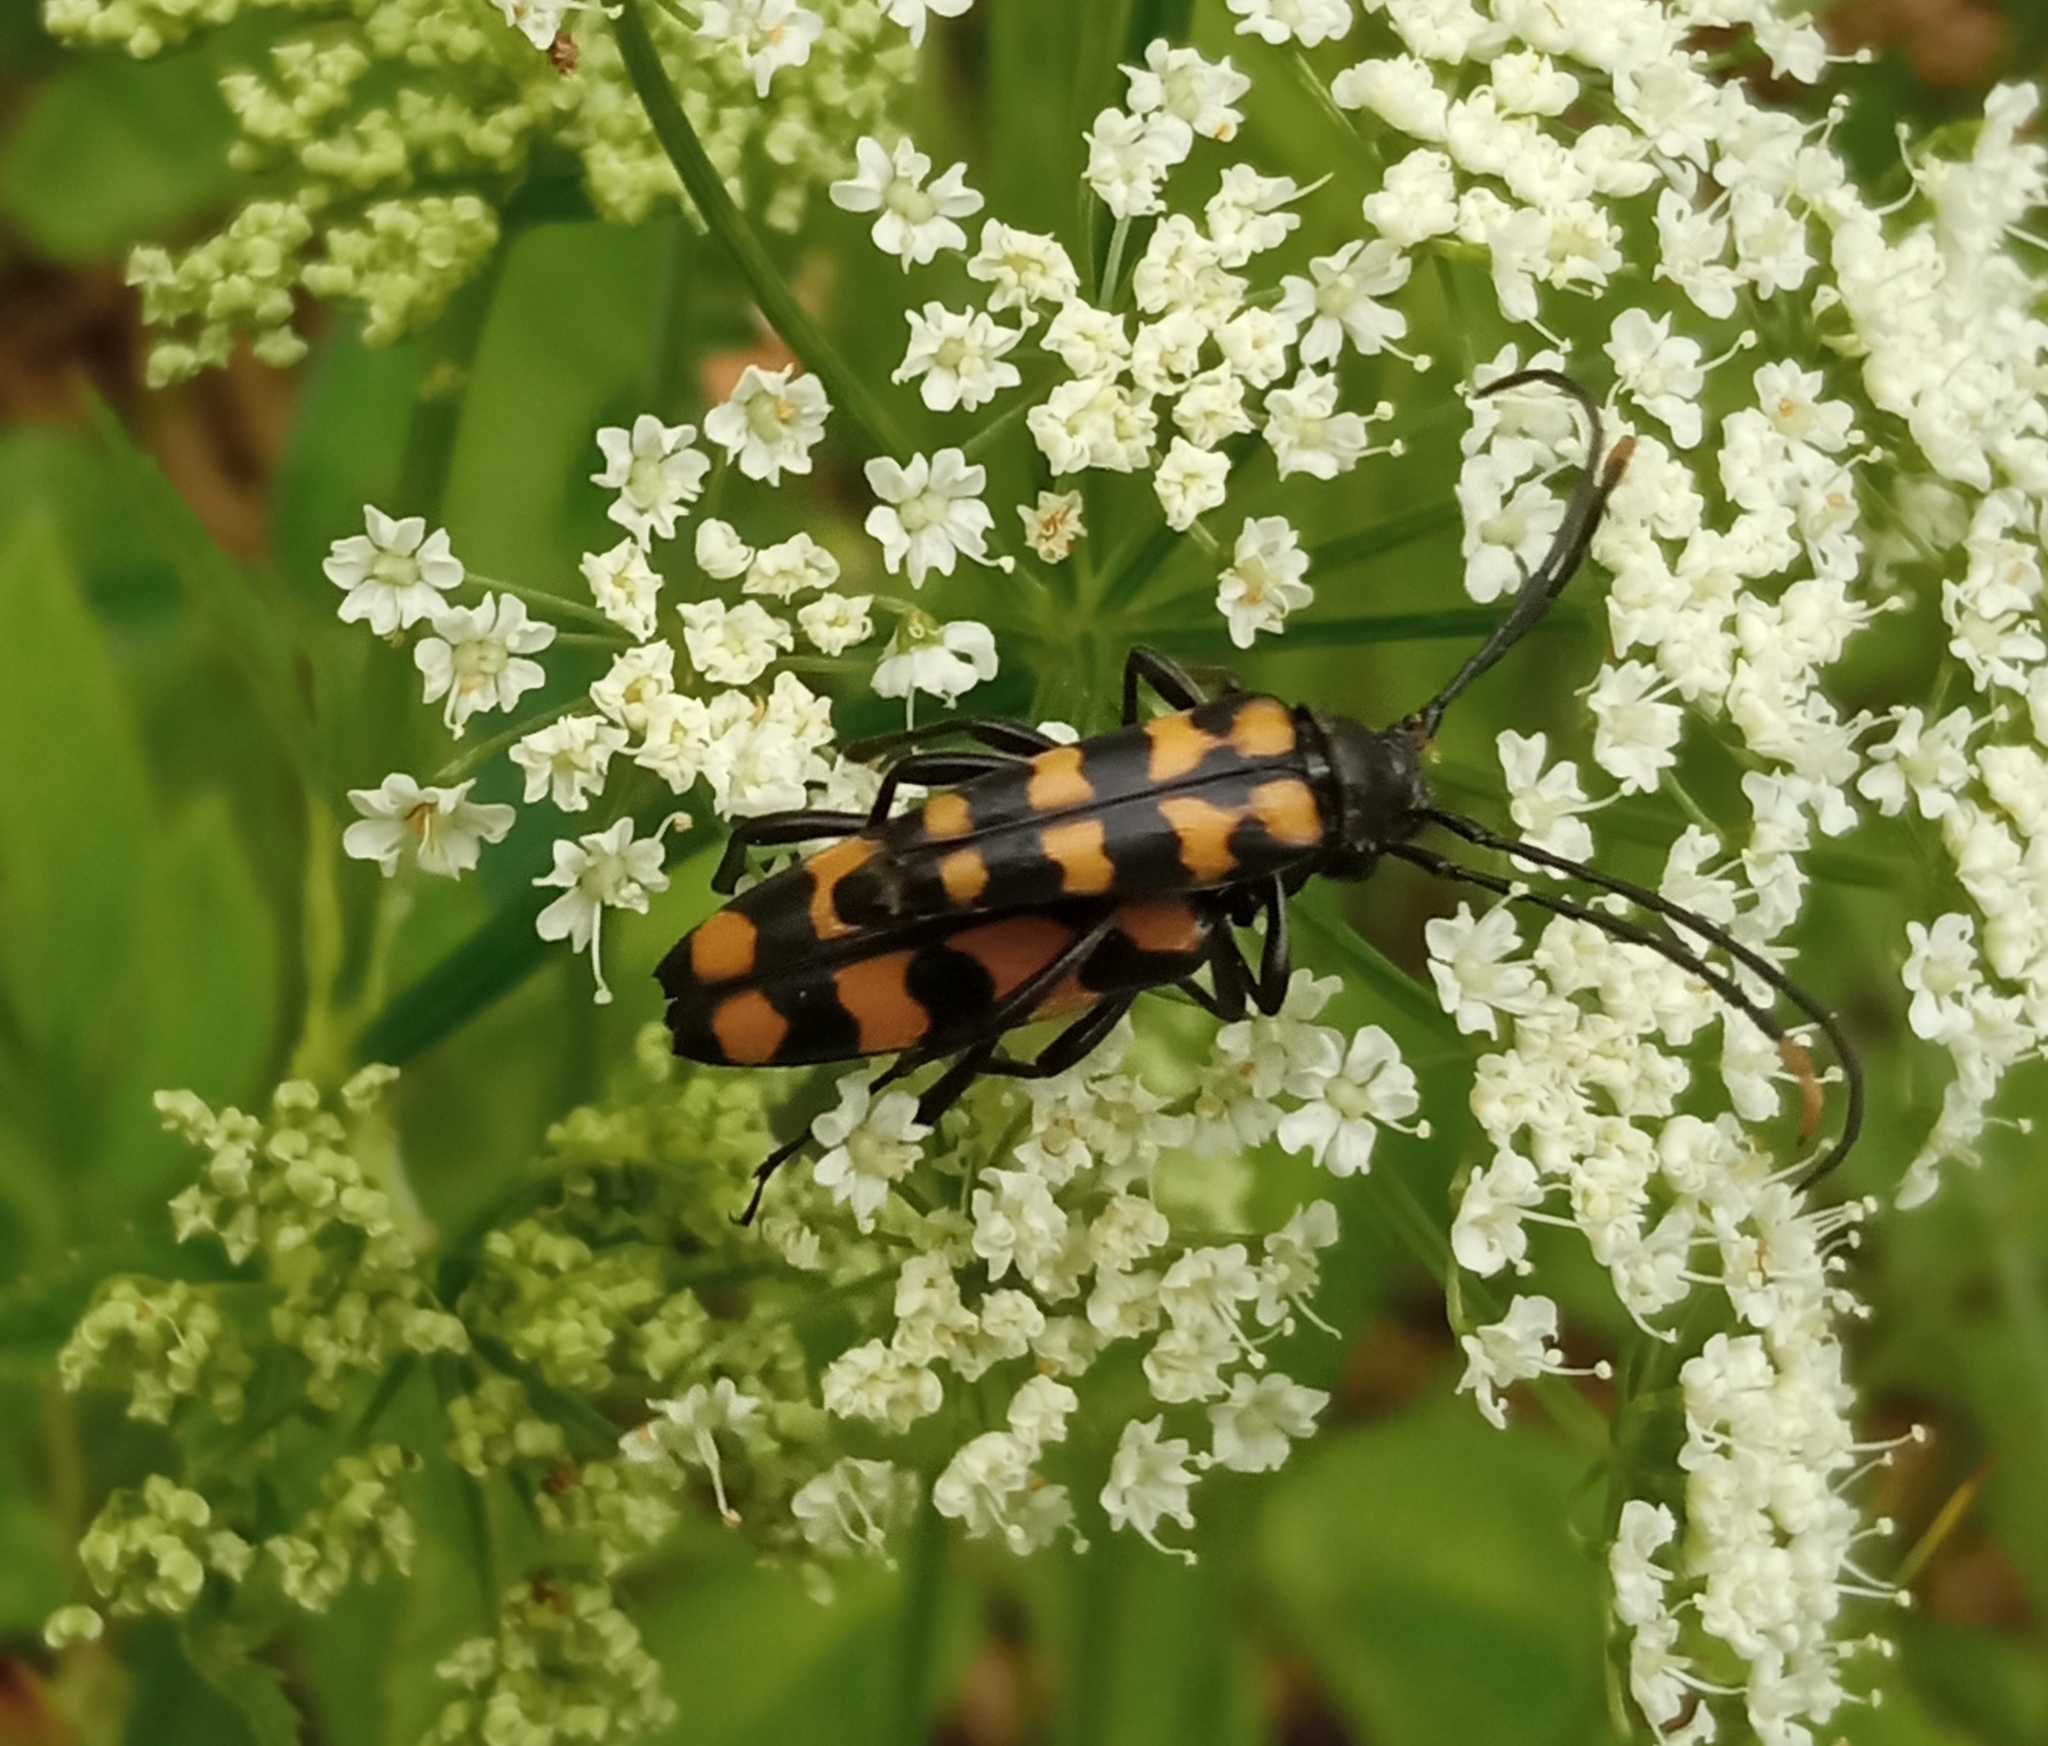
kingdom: Animalia
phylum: Arthropoda
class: Insecta
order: Coleoptera
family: Cerambycidae
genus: Leptura
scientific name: Leptura quadrifasciata
